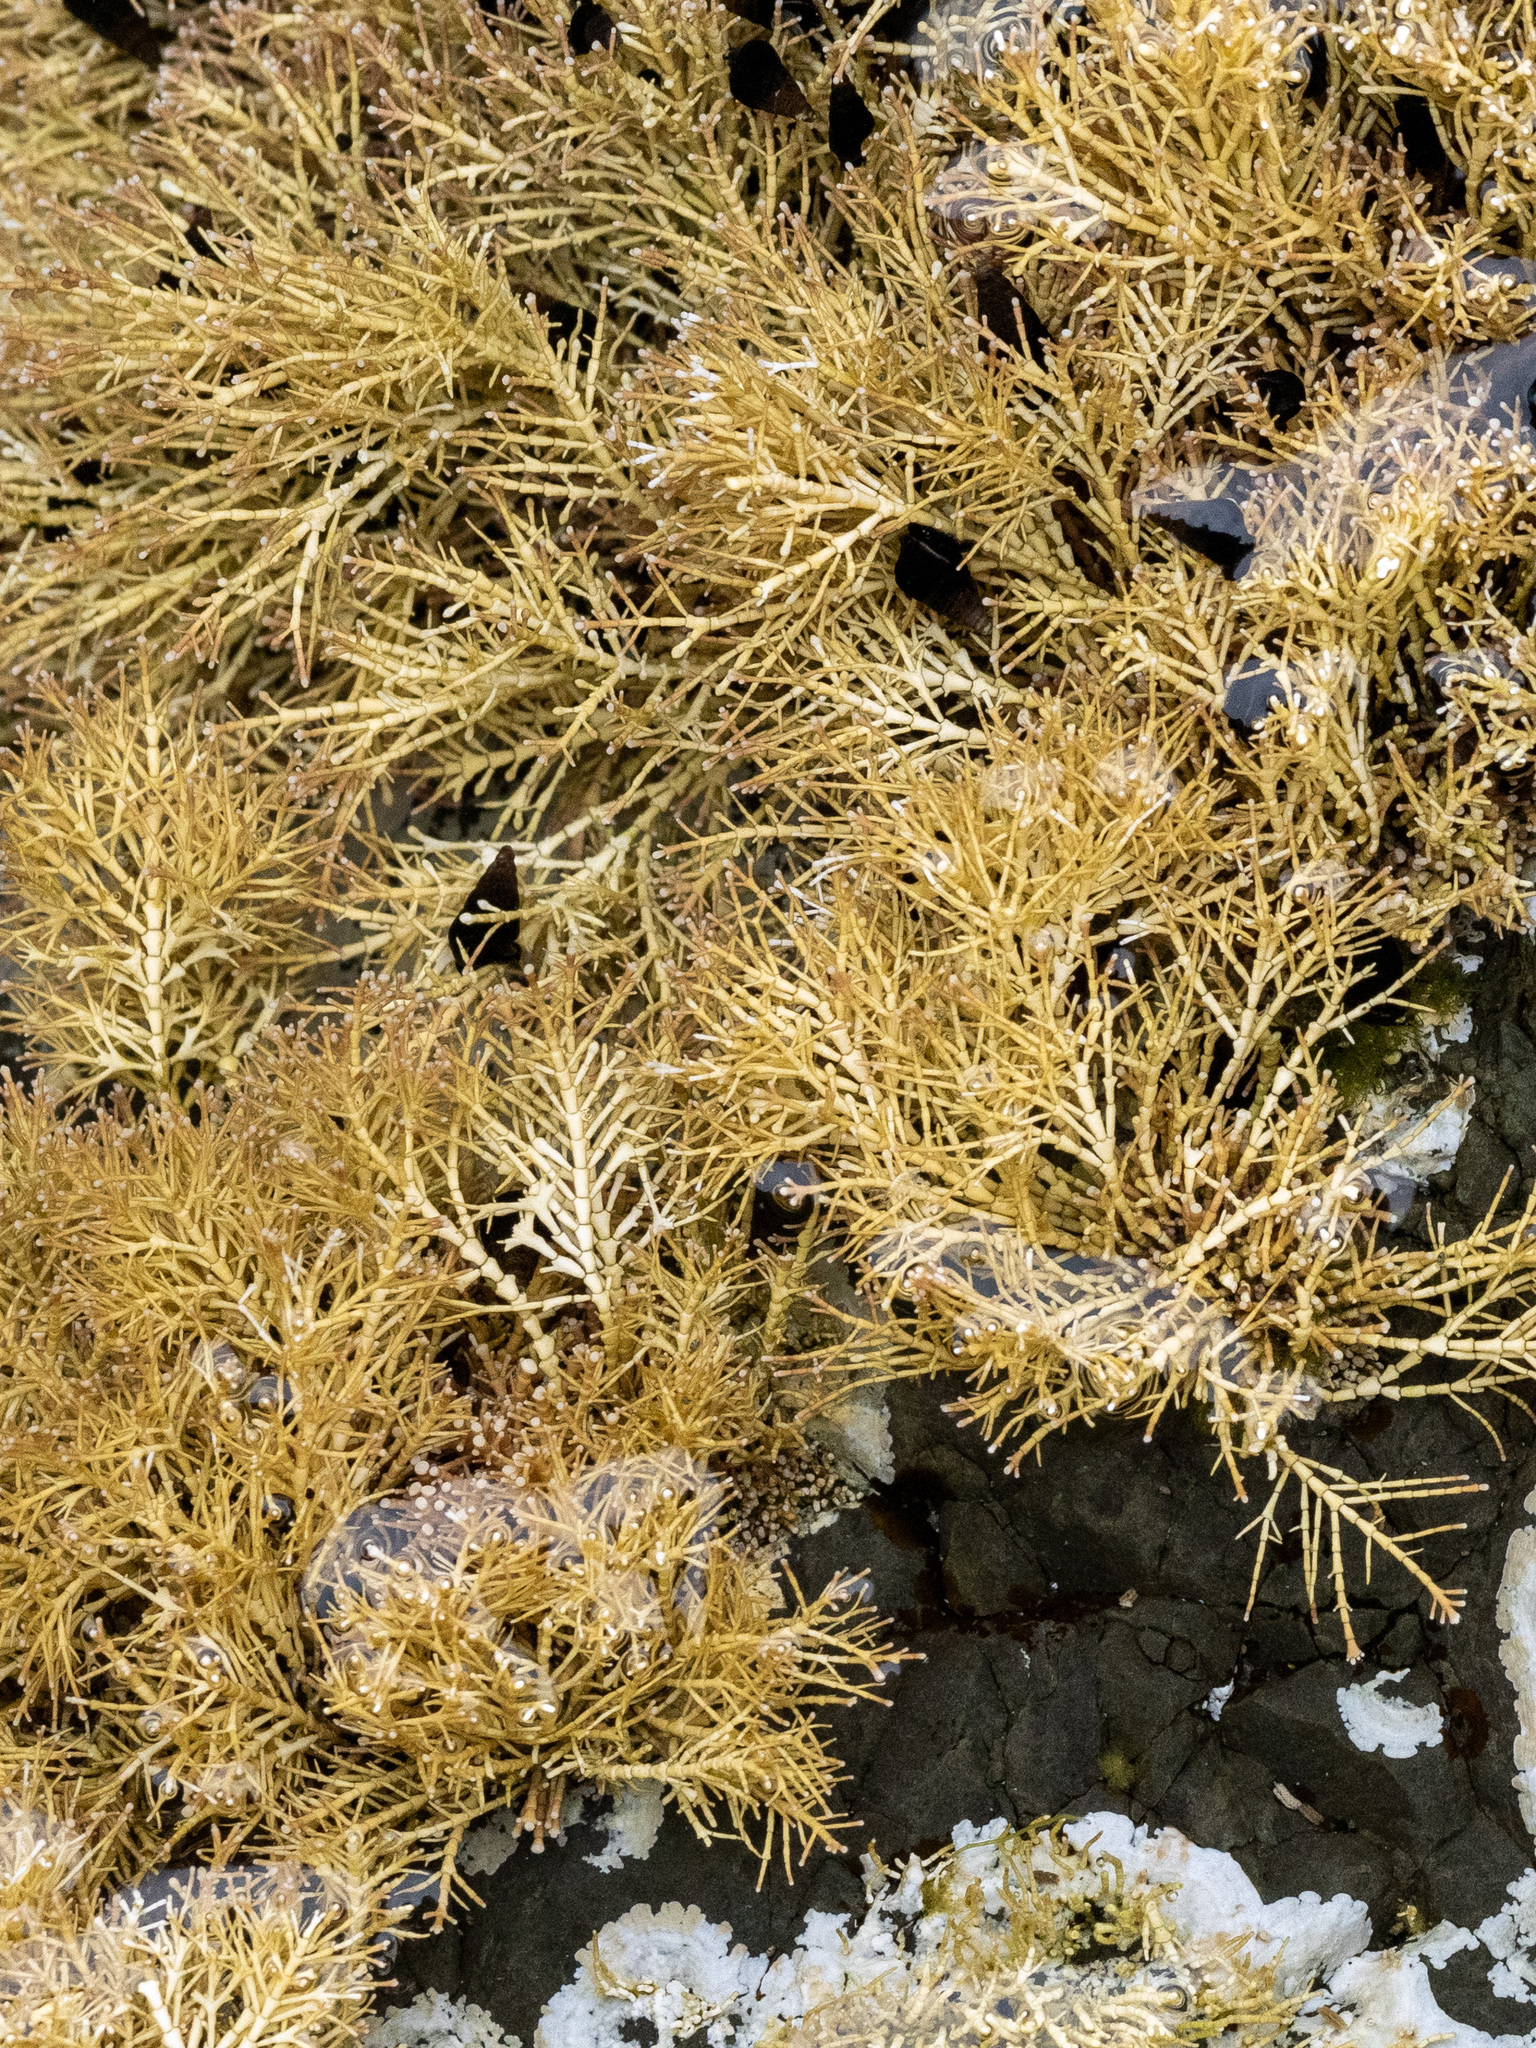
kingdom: Plantae
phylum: Rhodophyta
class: Florideophyceae
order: Corallinales
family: Corallinaceae
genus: Corallina
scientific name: Corallina officinalis
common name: Coral weed
